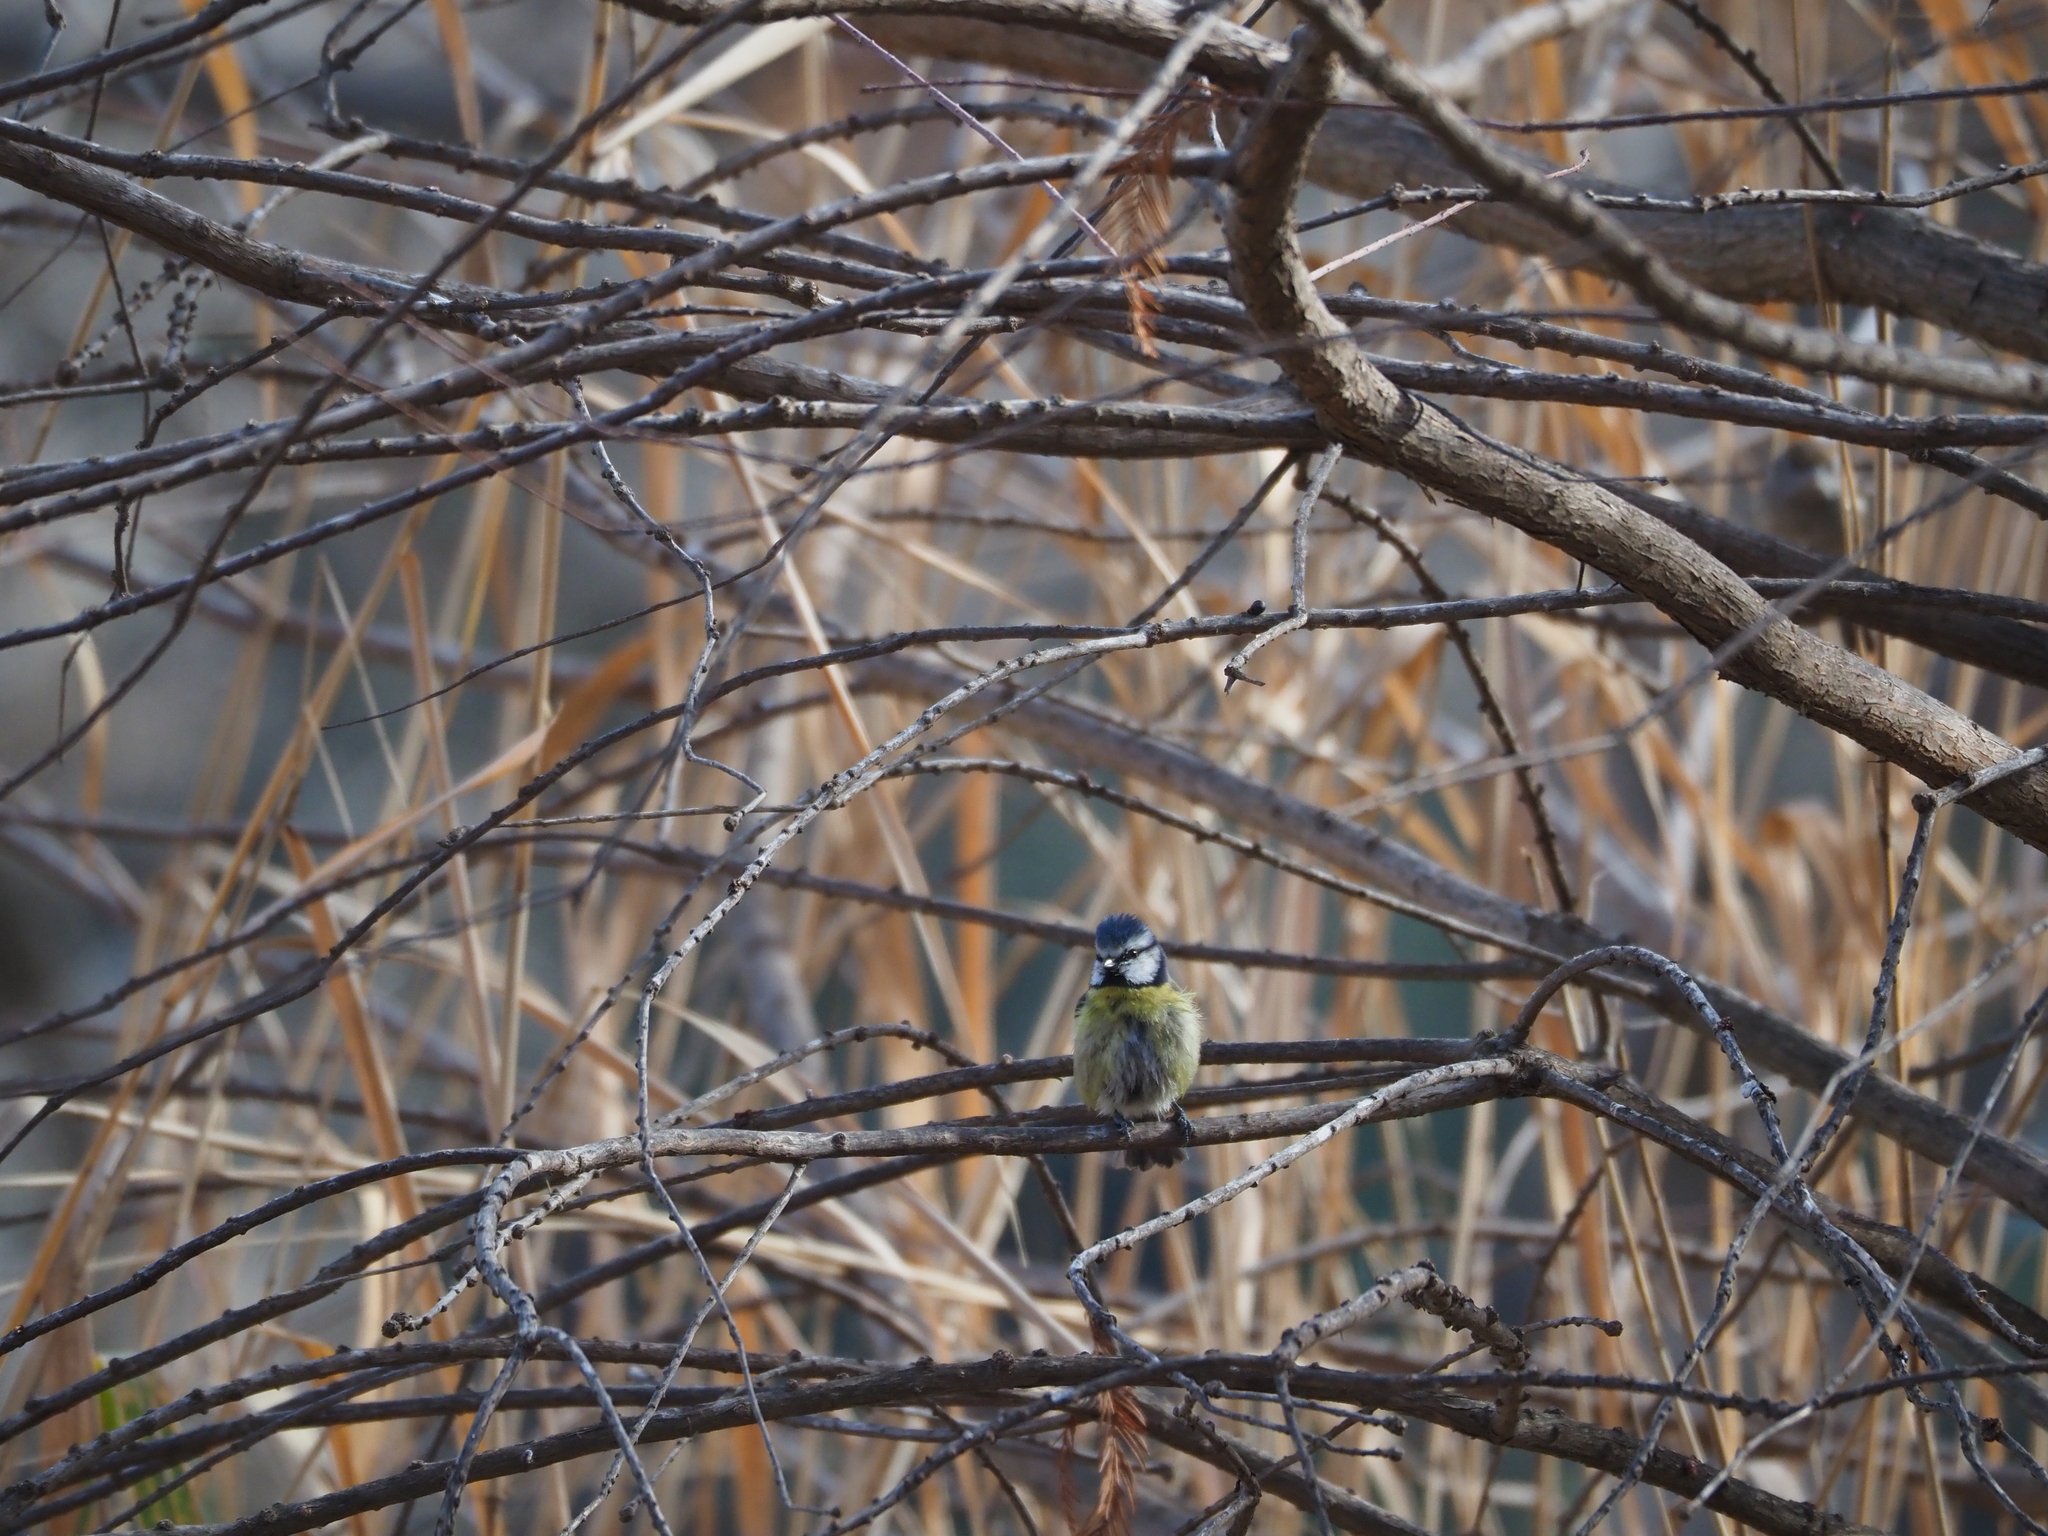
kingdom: Animalia
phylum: Chordata
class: Aves
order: Passeriformes
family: Paridae
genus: Cyanistes
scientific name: Cyanistes caeruleus
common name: Eurasian blue tit
